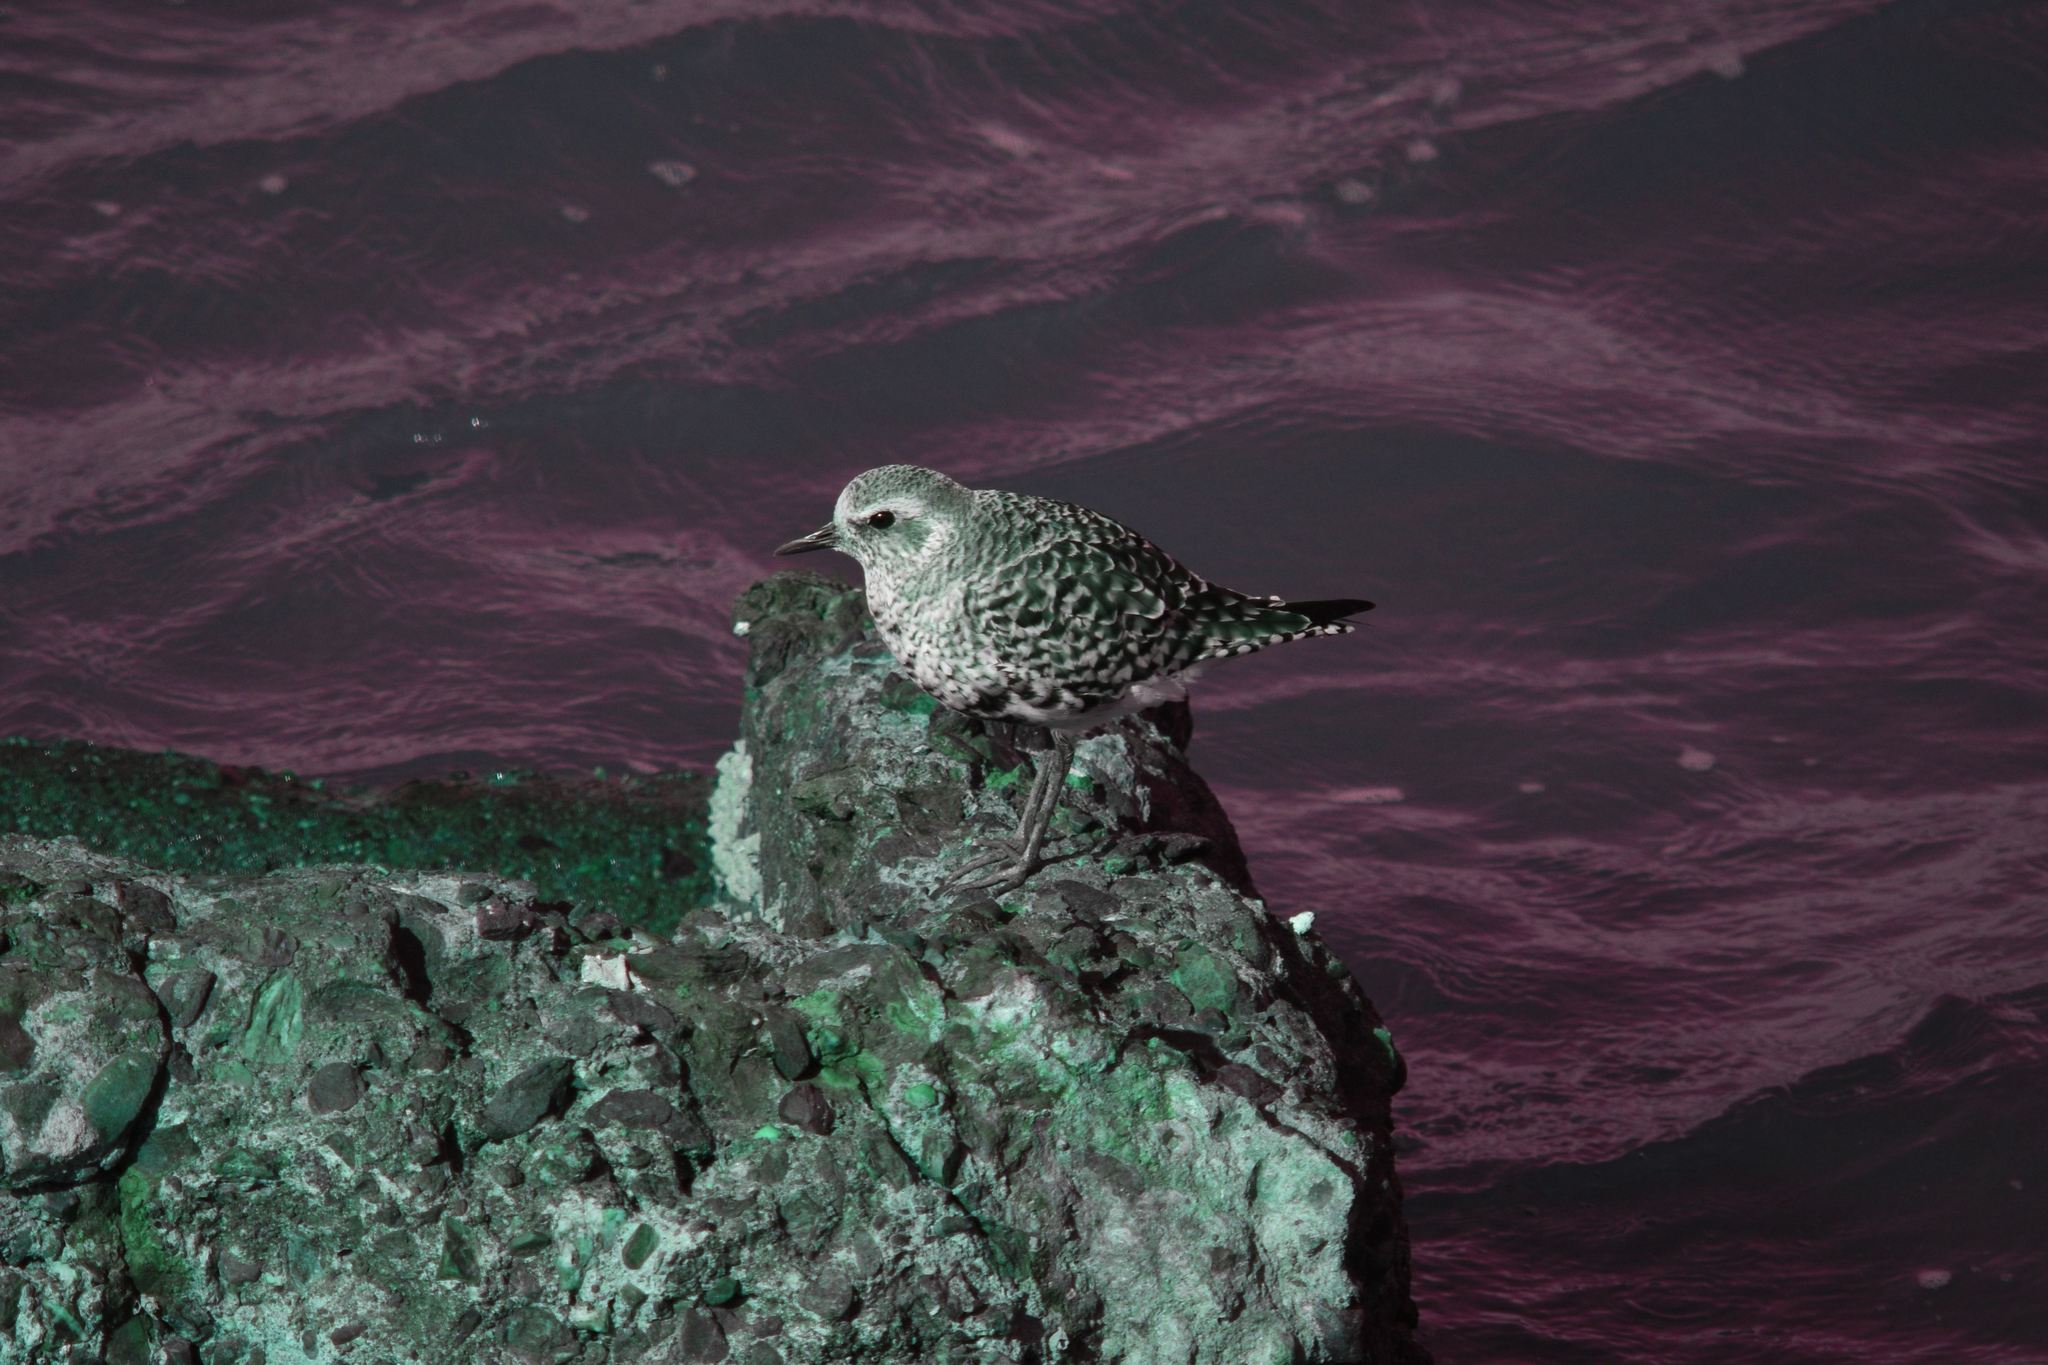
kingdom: Animalia
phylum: Chordata
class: Aves
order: Charadriiformes
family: Charadriidae
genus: Pluvialis
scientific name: Pluvialis squatarola
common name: Grey plover
